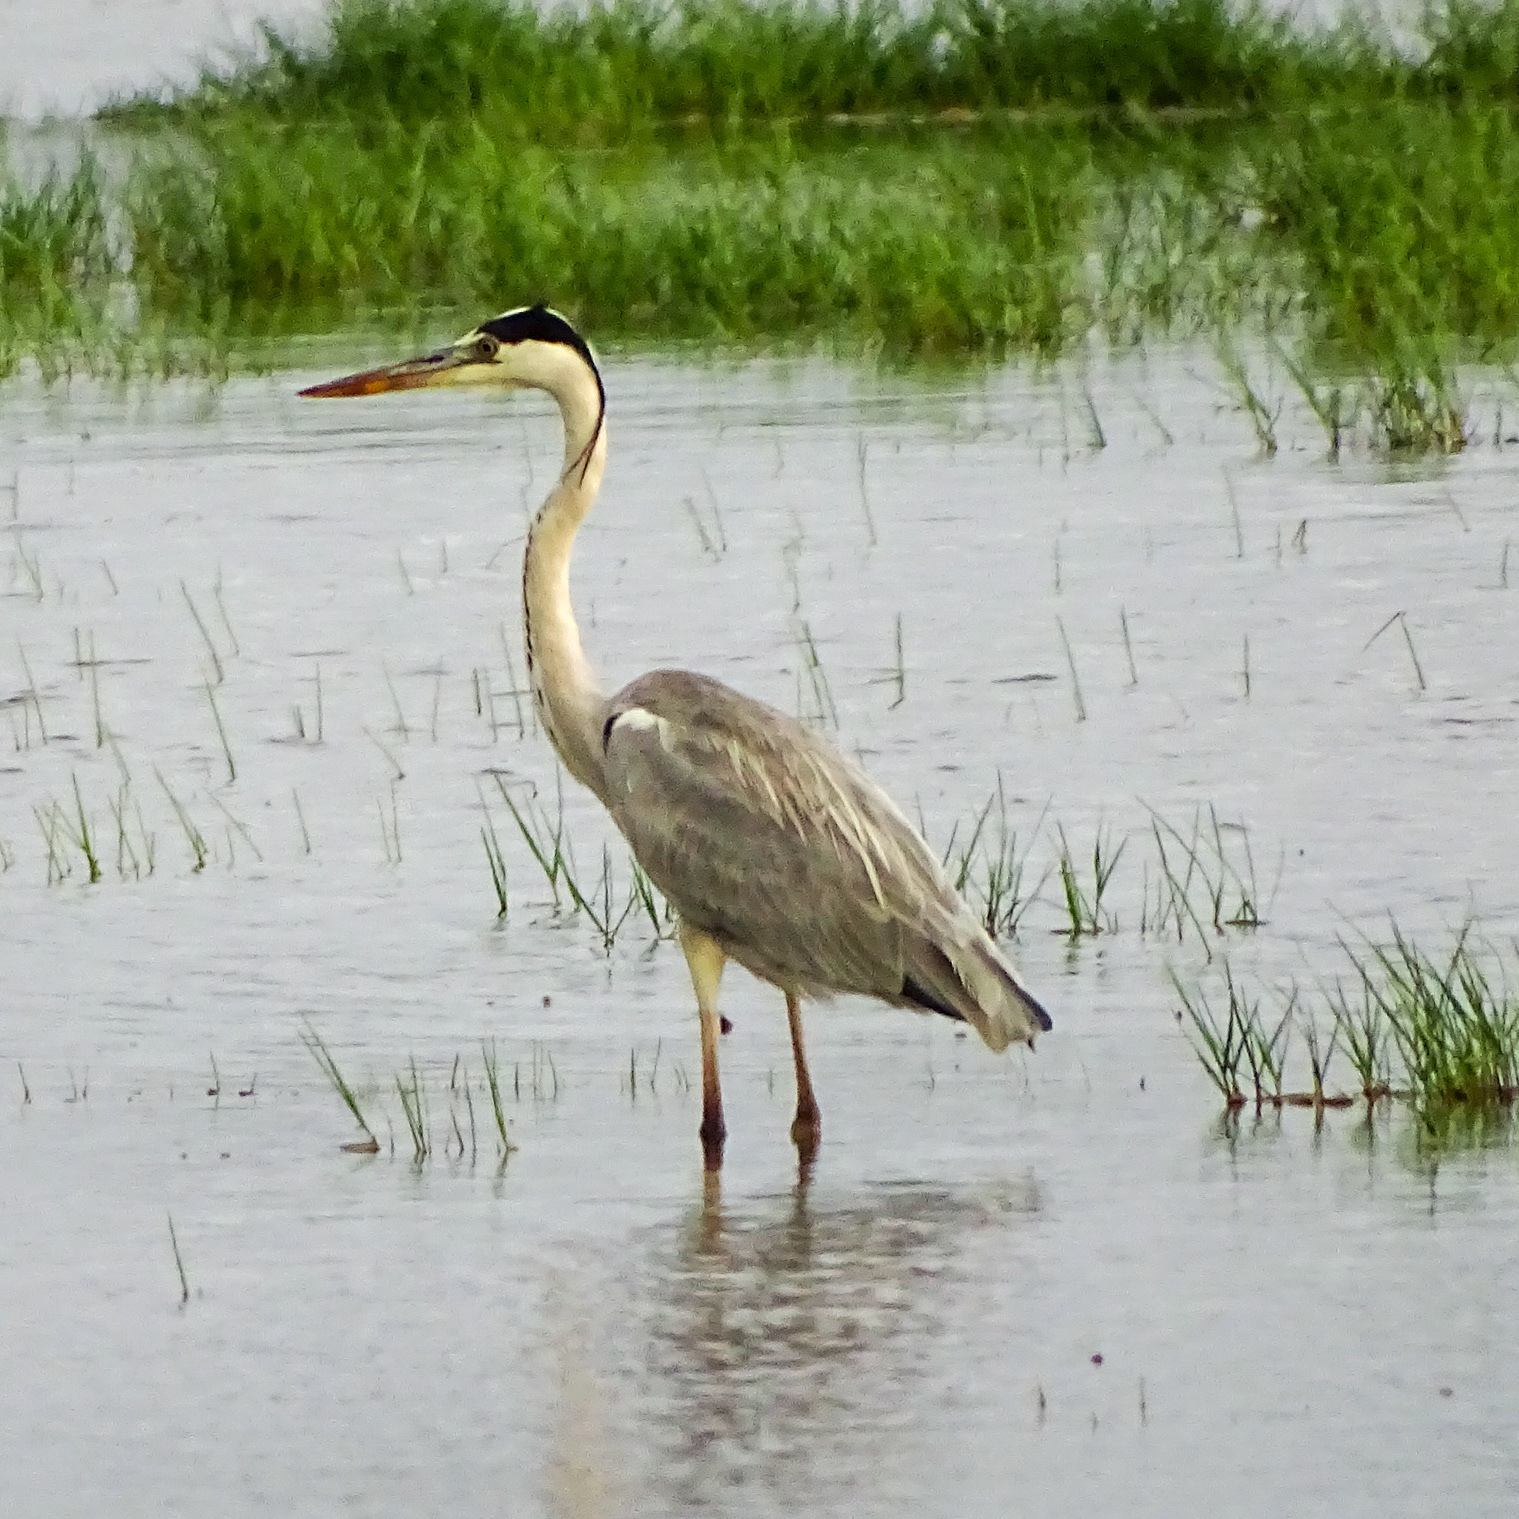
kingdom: Animalia
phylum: Chordata
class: Aves
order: Pelecaniformes
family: Ardeidae
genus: Ardea
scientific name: Ardea cinerea
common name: Grey heron
